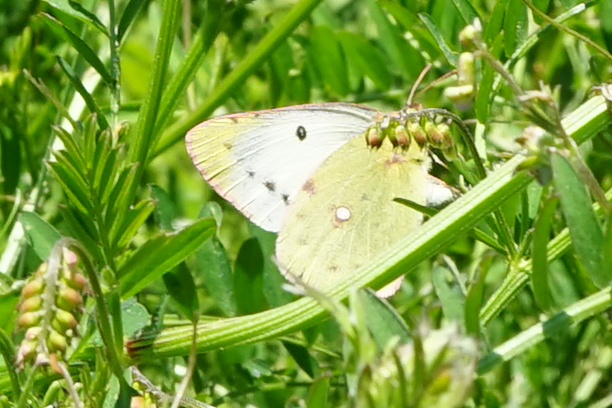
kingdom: Animalia
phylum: Arthropoda
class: Insecta
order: Lepidoptera
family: Pieridae
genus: Colias
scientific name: Colias poliographus
